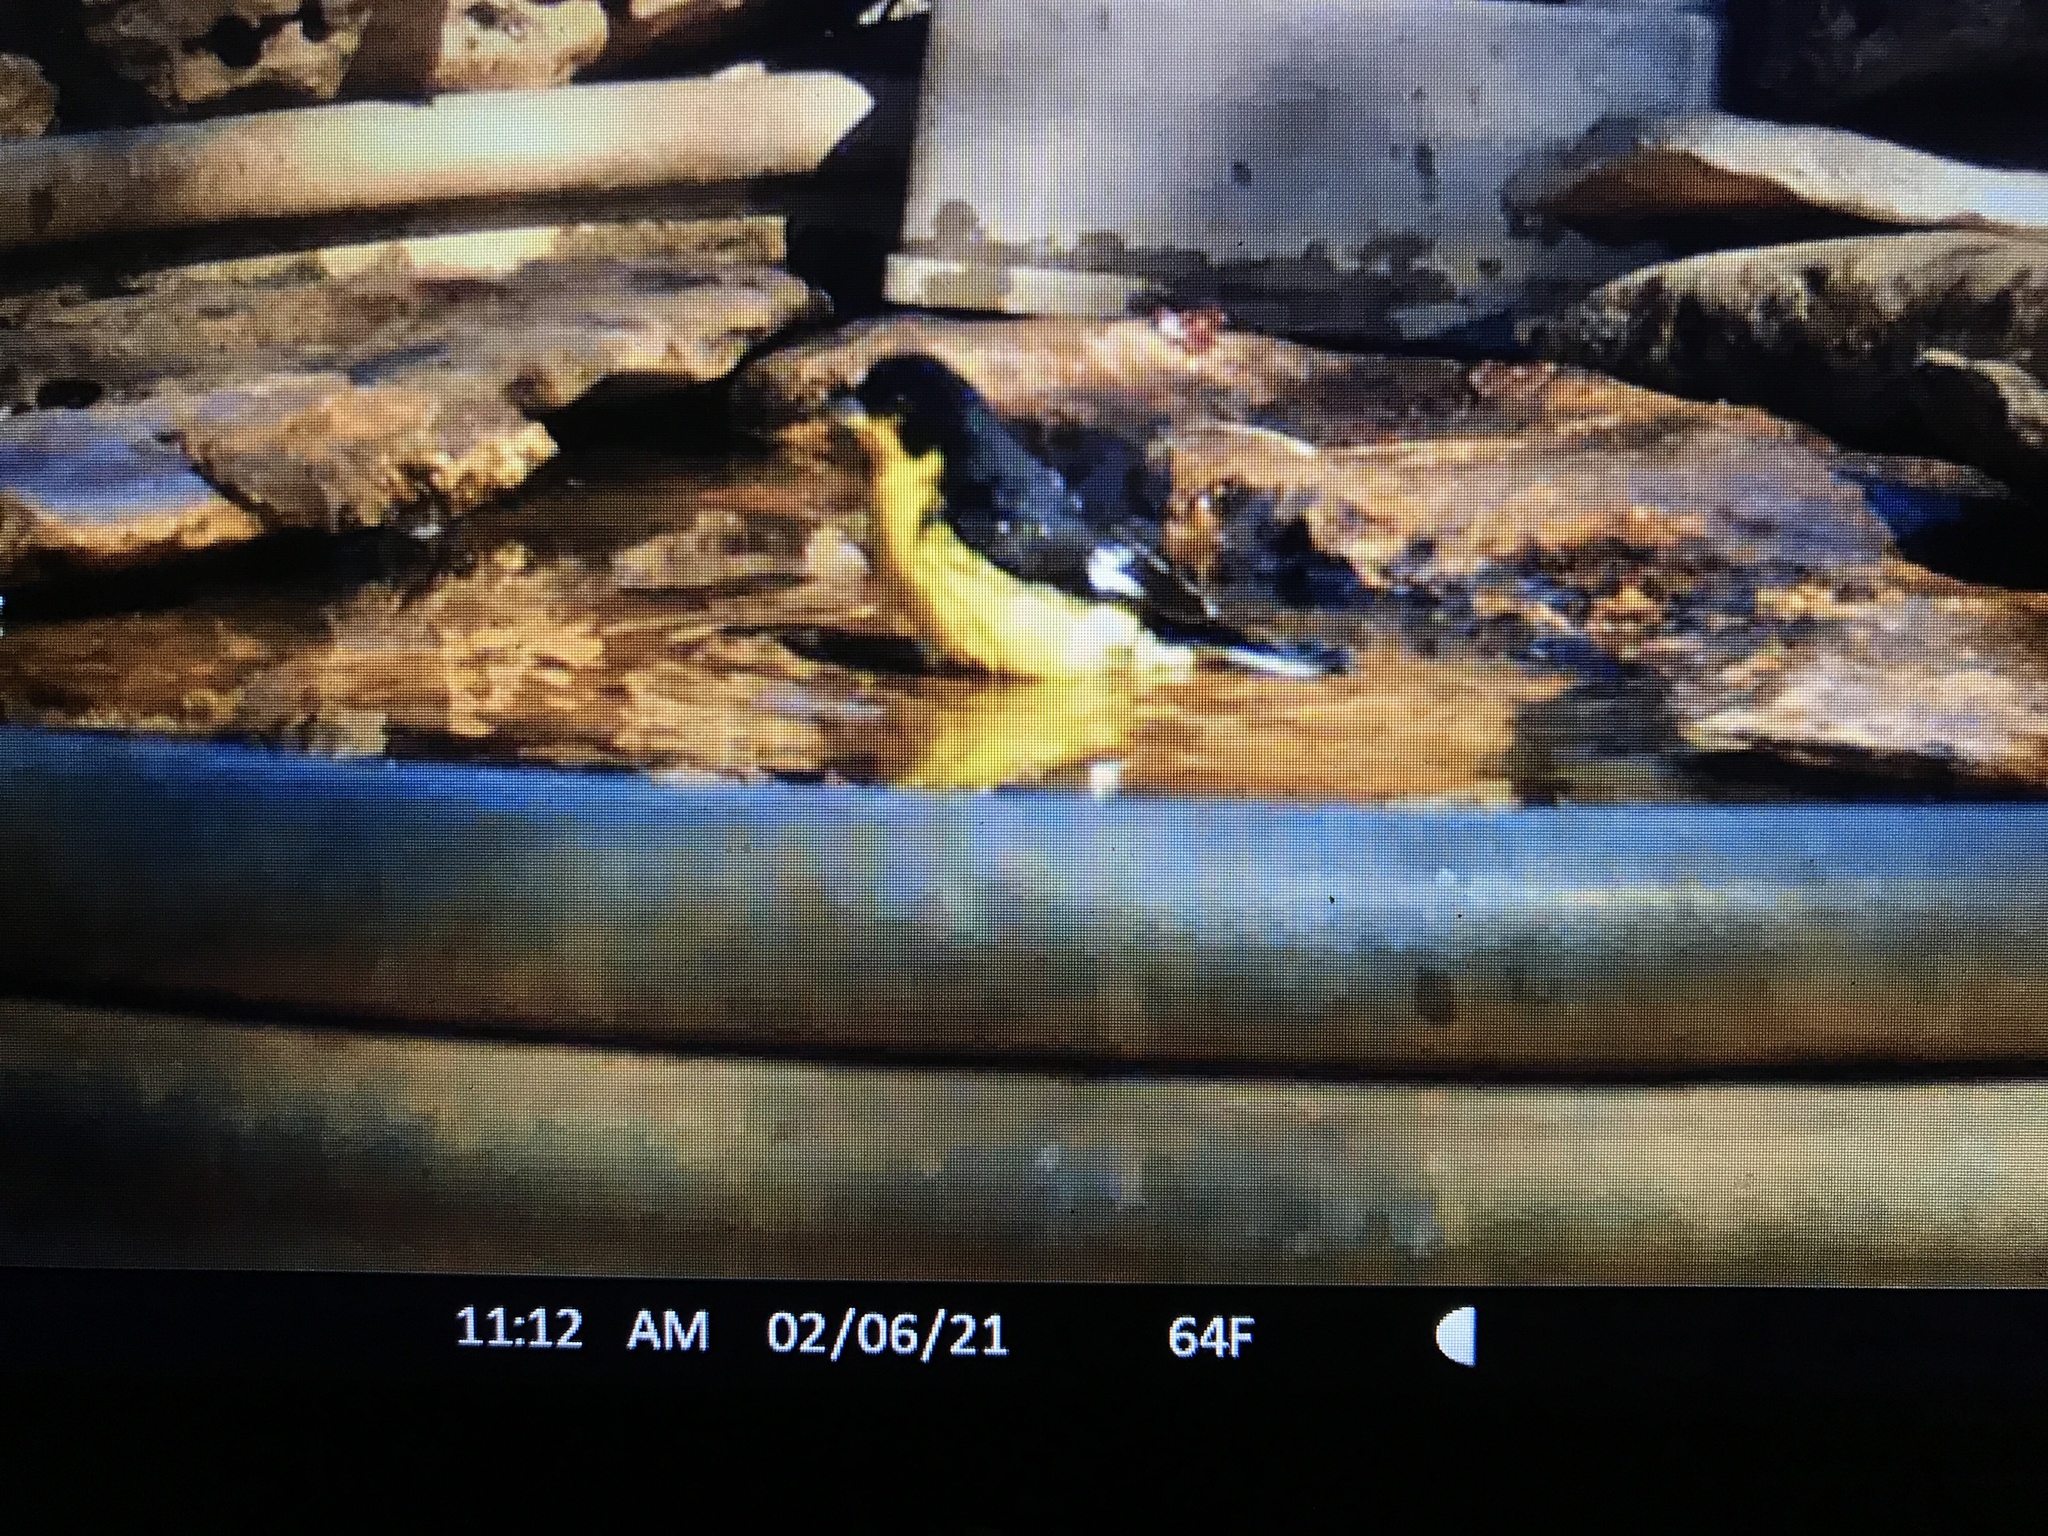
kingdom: Animalia
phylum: Chordata
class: Aves
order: Passeriformes
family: Fringillidae
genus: Spinus
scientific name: Spinus psaltria
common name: Lesser goldfinch
